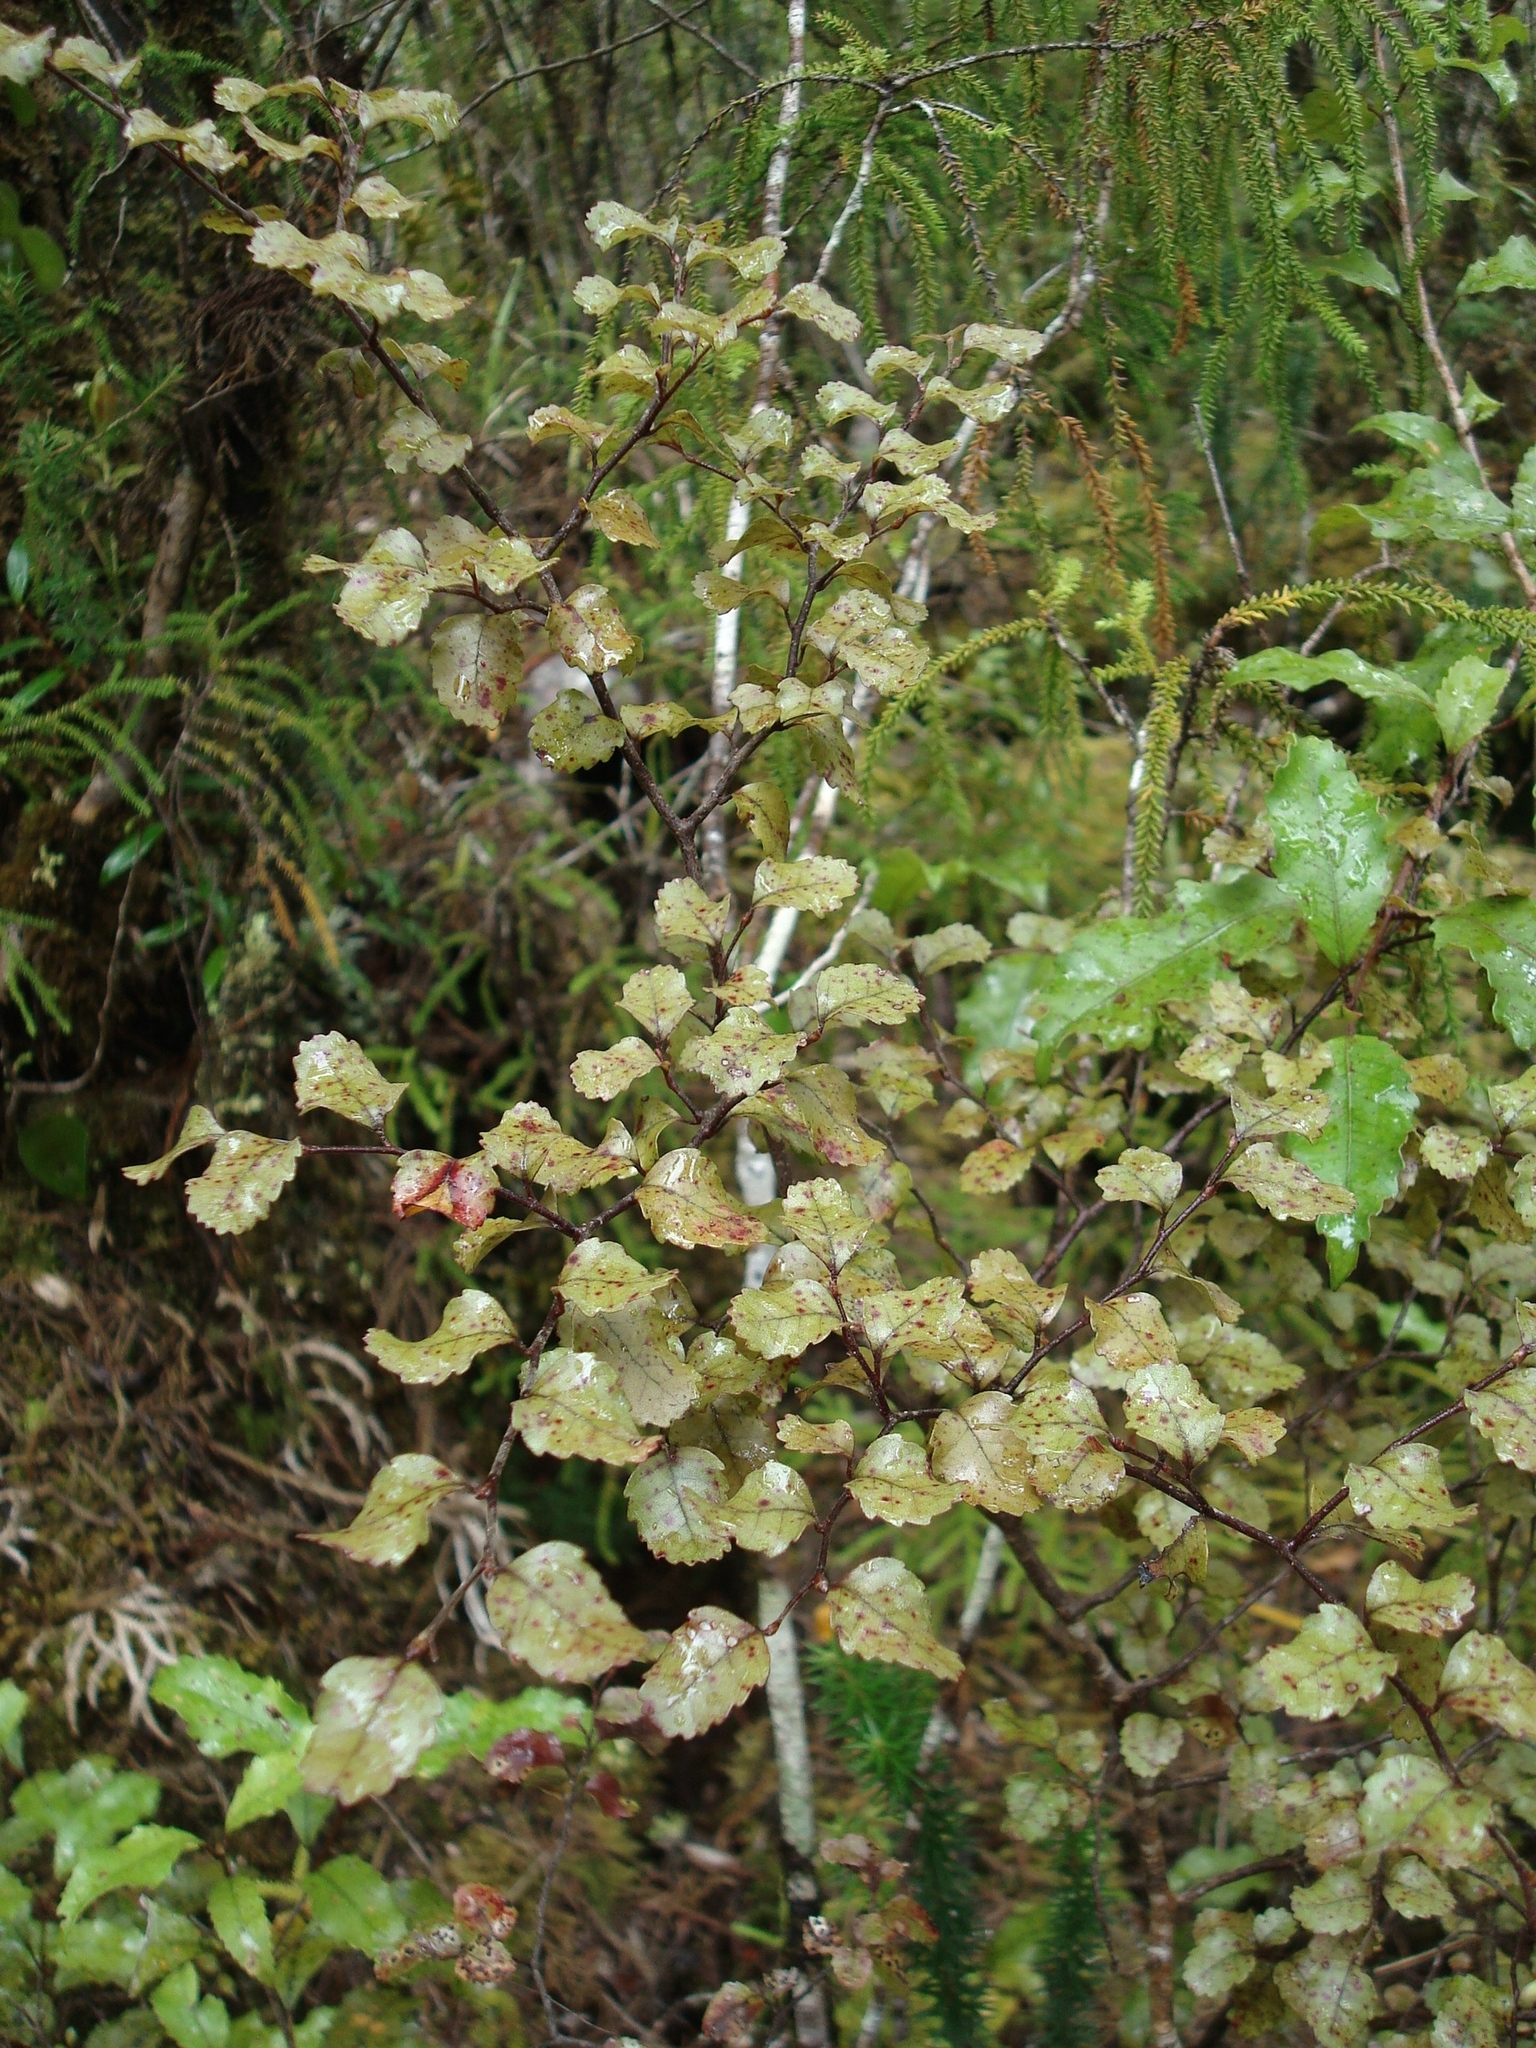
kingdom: Plantae
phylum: Tracheophyta
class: Magnoliopsida
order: Fagales
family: Nothofagaceae
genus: Nothofagus
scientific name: Nothofagus truncata
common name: Hard beech
